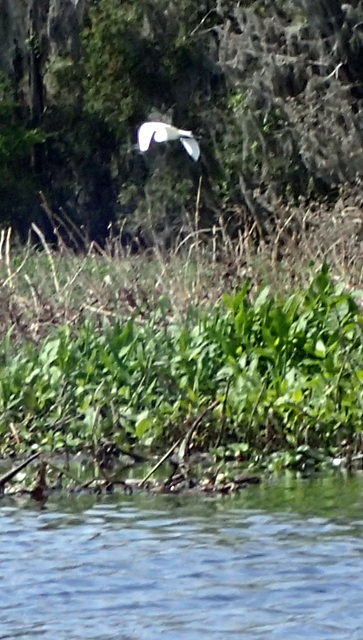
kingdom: Animalia
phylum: Chordata
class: Aves
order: Pelecaniformes
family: Ardeidae
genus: Ardea
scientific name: Ardea alba
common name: Great egret
